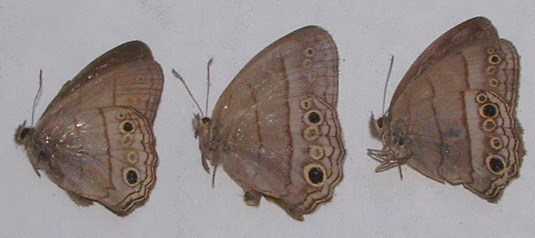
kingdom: Animalia
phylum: Arthropoda
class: Insecta
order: Lepidoptera
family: Nymphalidae
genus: Vareuptychia
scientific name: Vareuptychia similis
